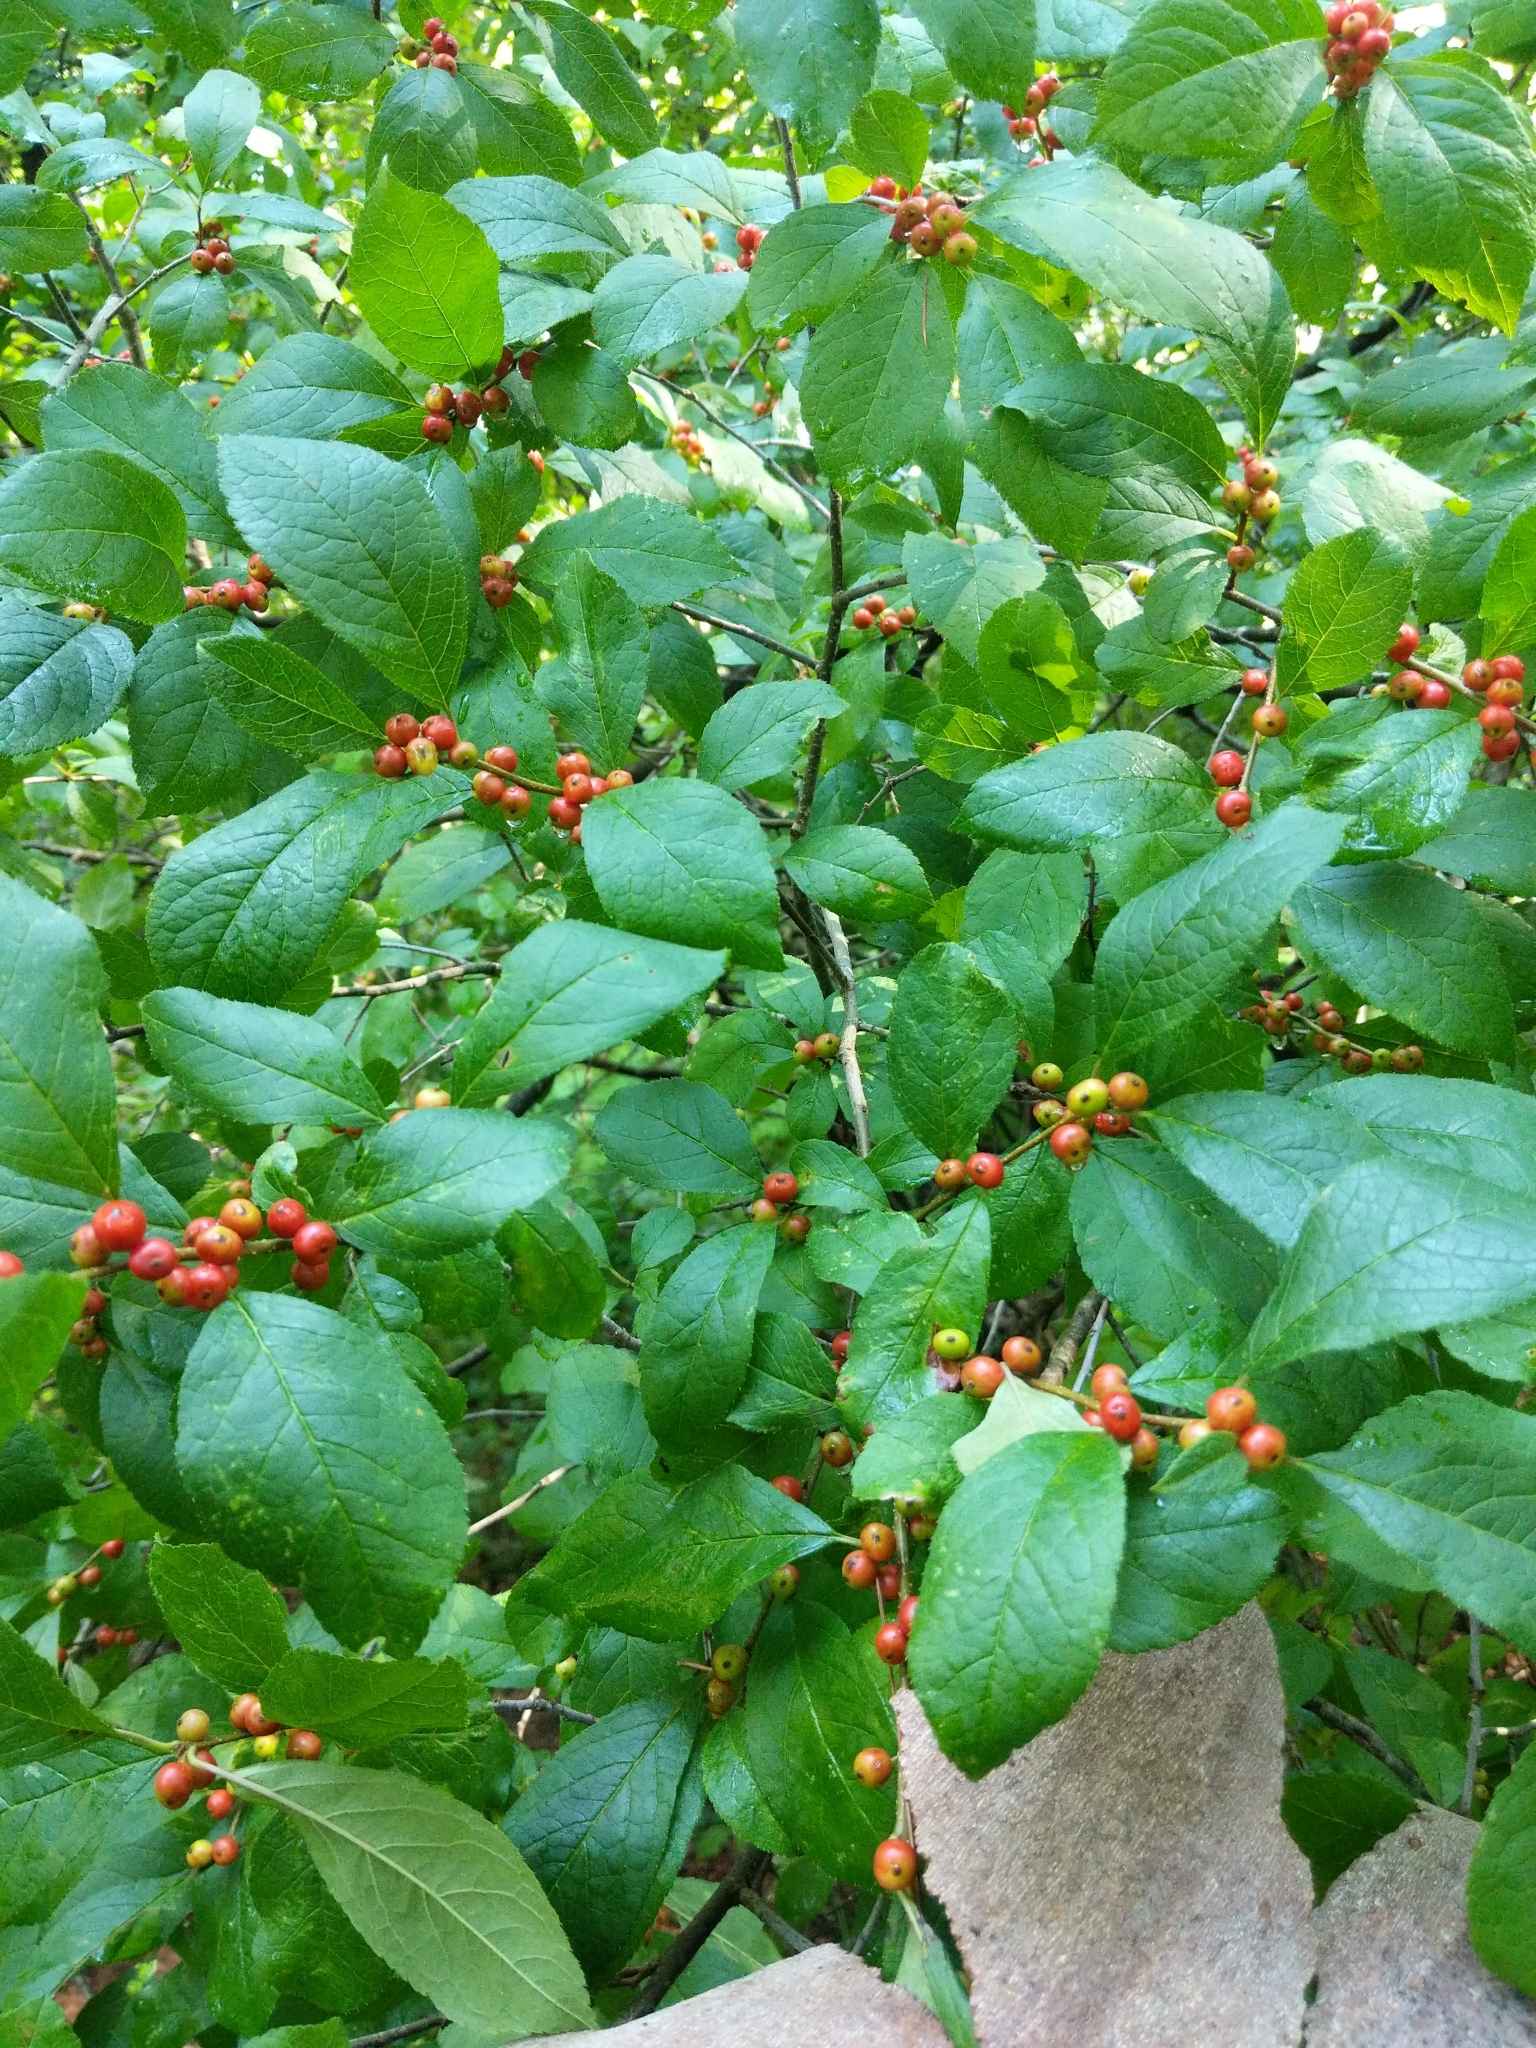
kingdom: Plantae
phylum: Tracheophyta
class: Magnoliopsida
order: Aquifoliales
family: Aquifoliaceae
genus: Ilex
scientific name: Ilex verticillata
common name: Virginia winterberry
